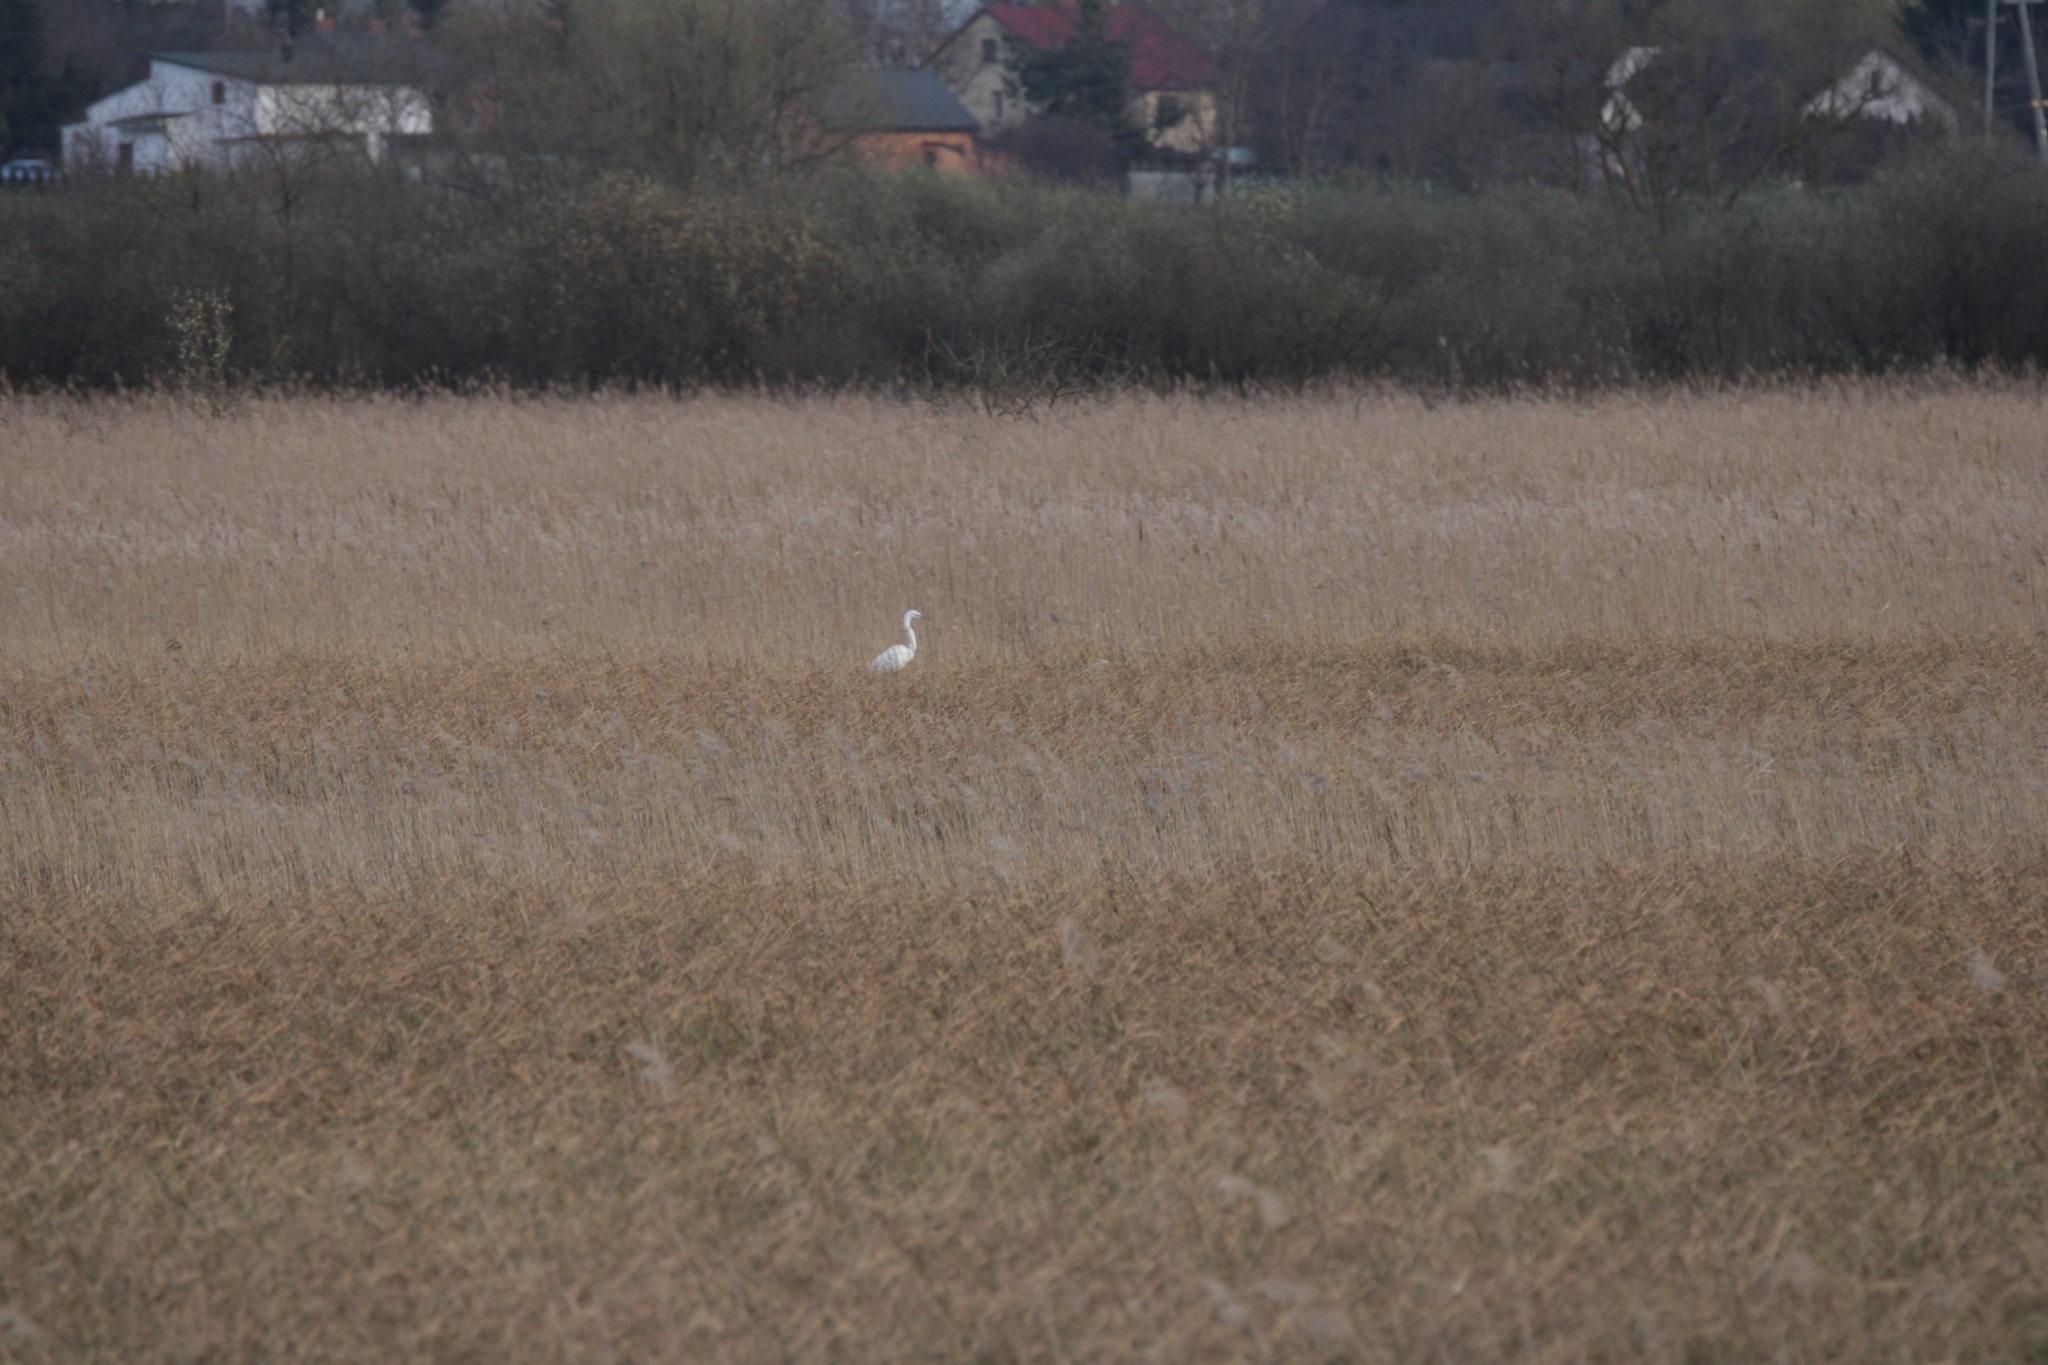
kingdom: Animalia
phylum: Chordata
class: Aves
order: Pelecaniformes
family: Ardeidae
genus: Ardea
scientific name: Ardea alba
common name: Great egret
